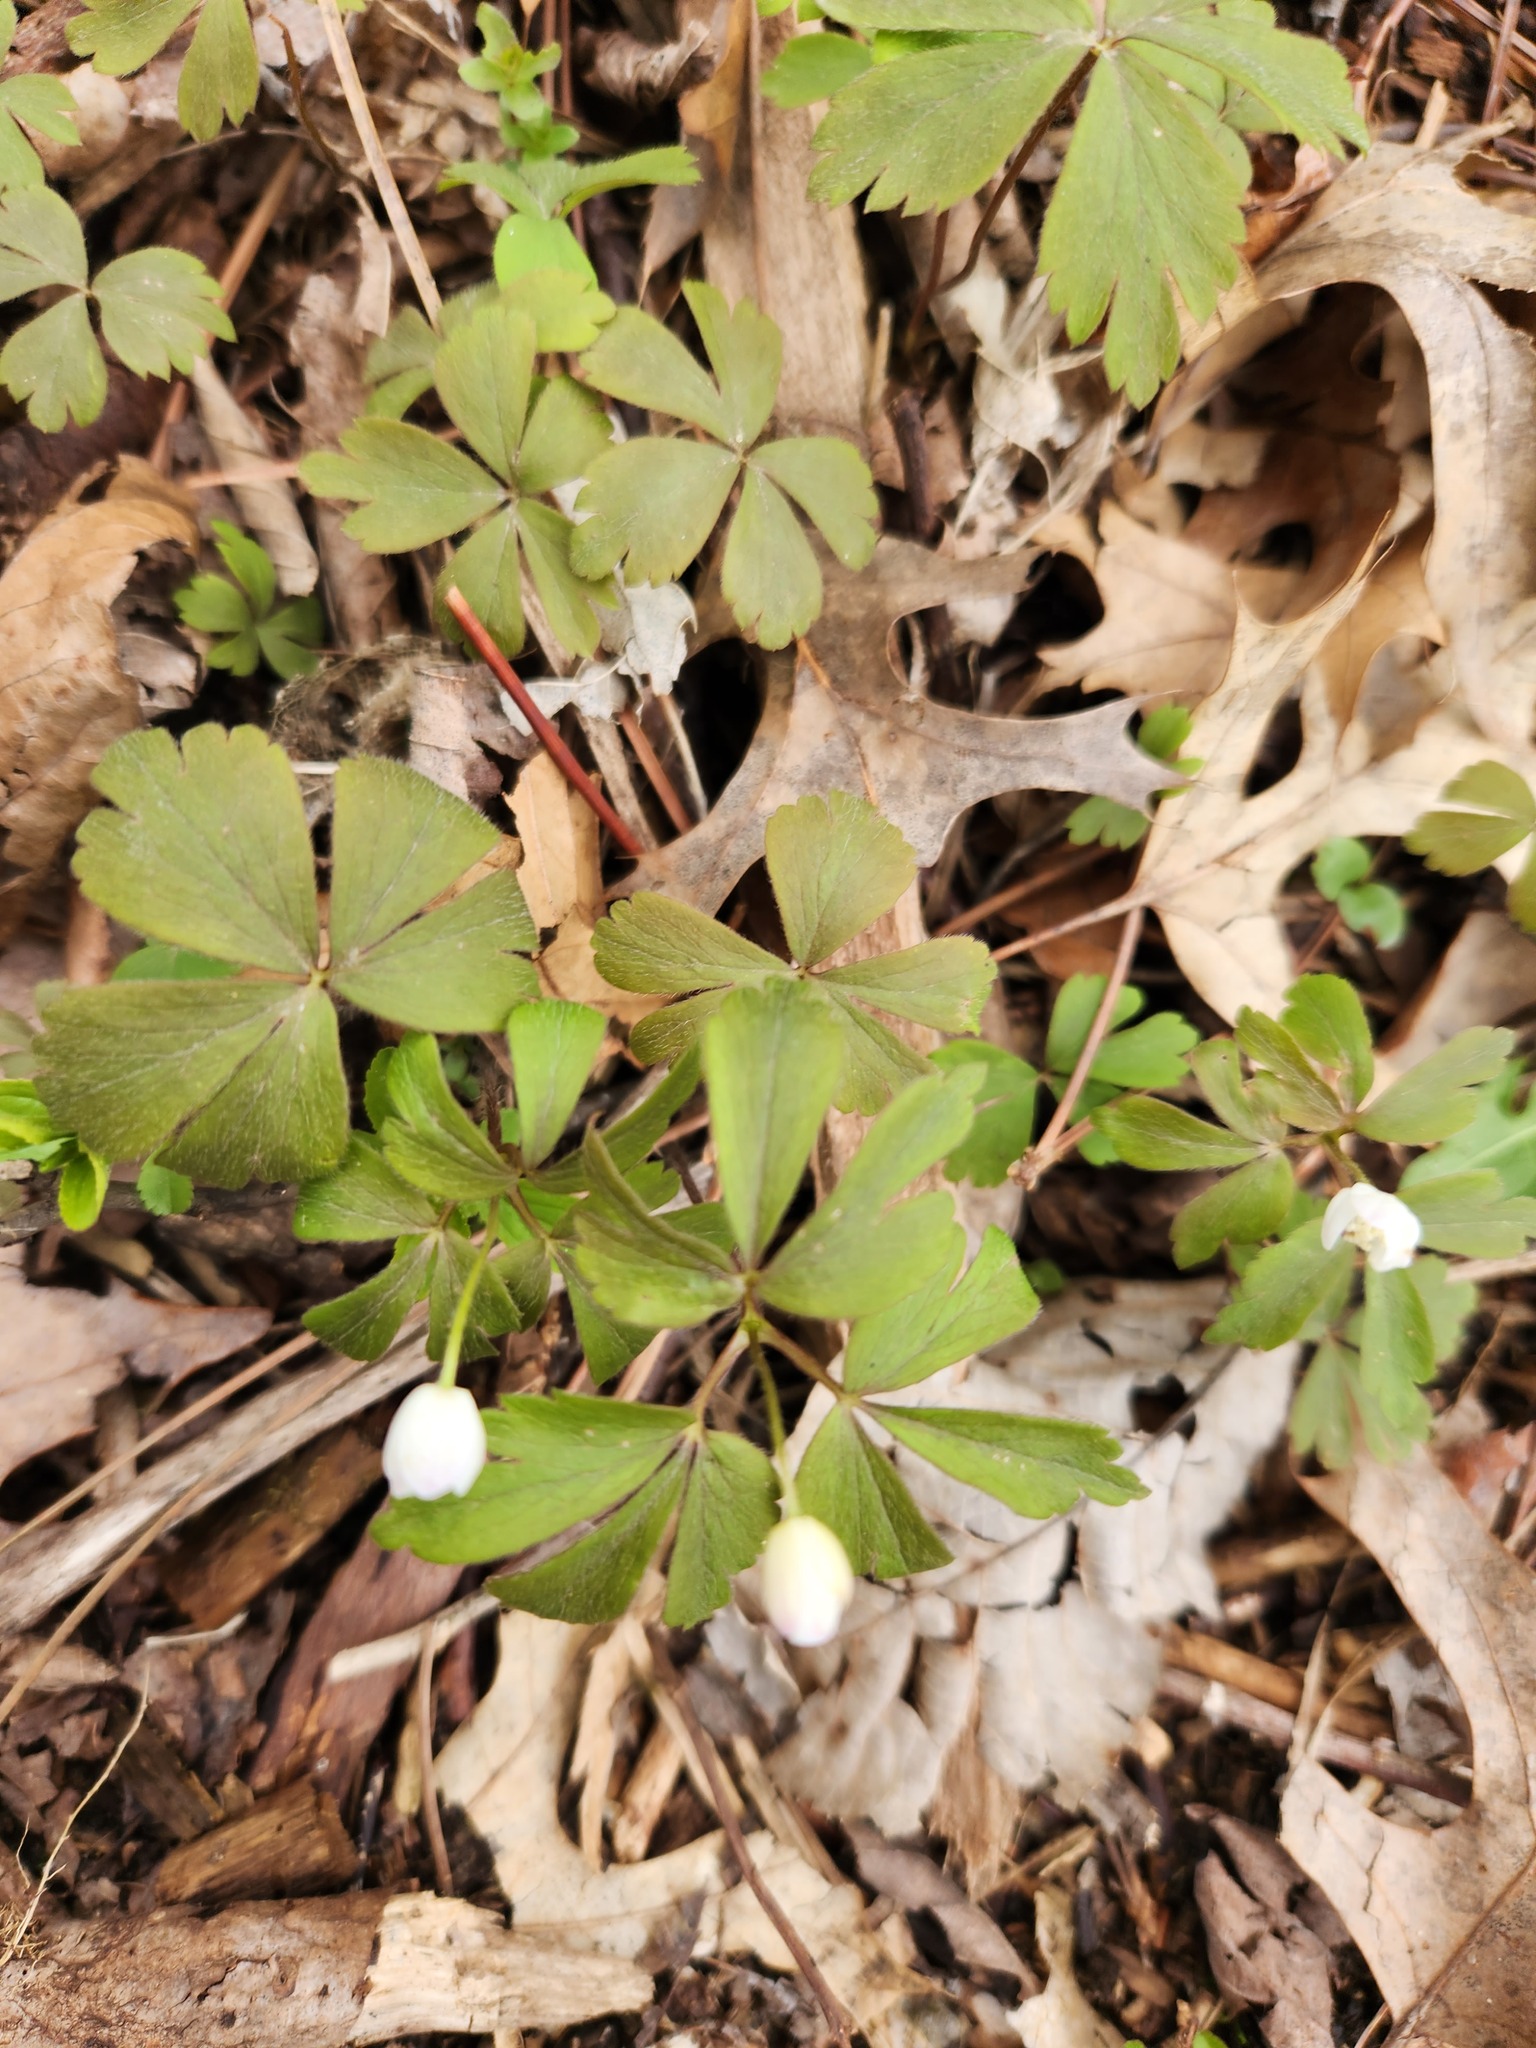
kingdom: Plantae
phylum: Tracheophyta
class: Magnoliopsida
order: Ranunculales
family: Ranunculaceae
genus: Anemone
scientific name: Anemone quinquefolia
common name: Wood anemone
